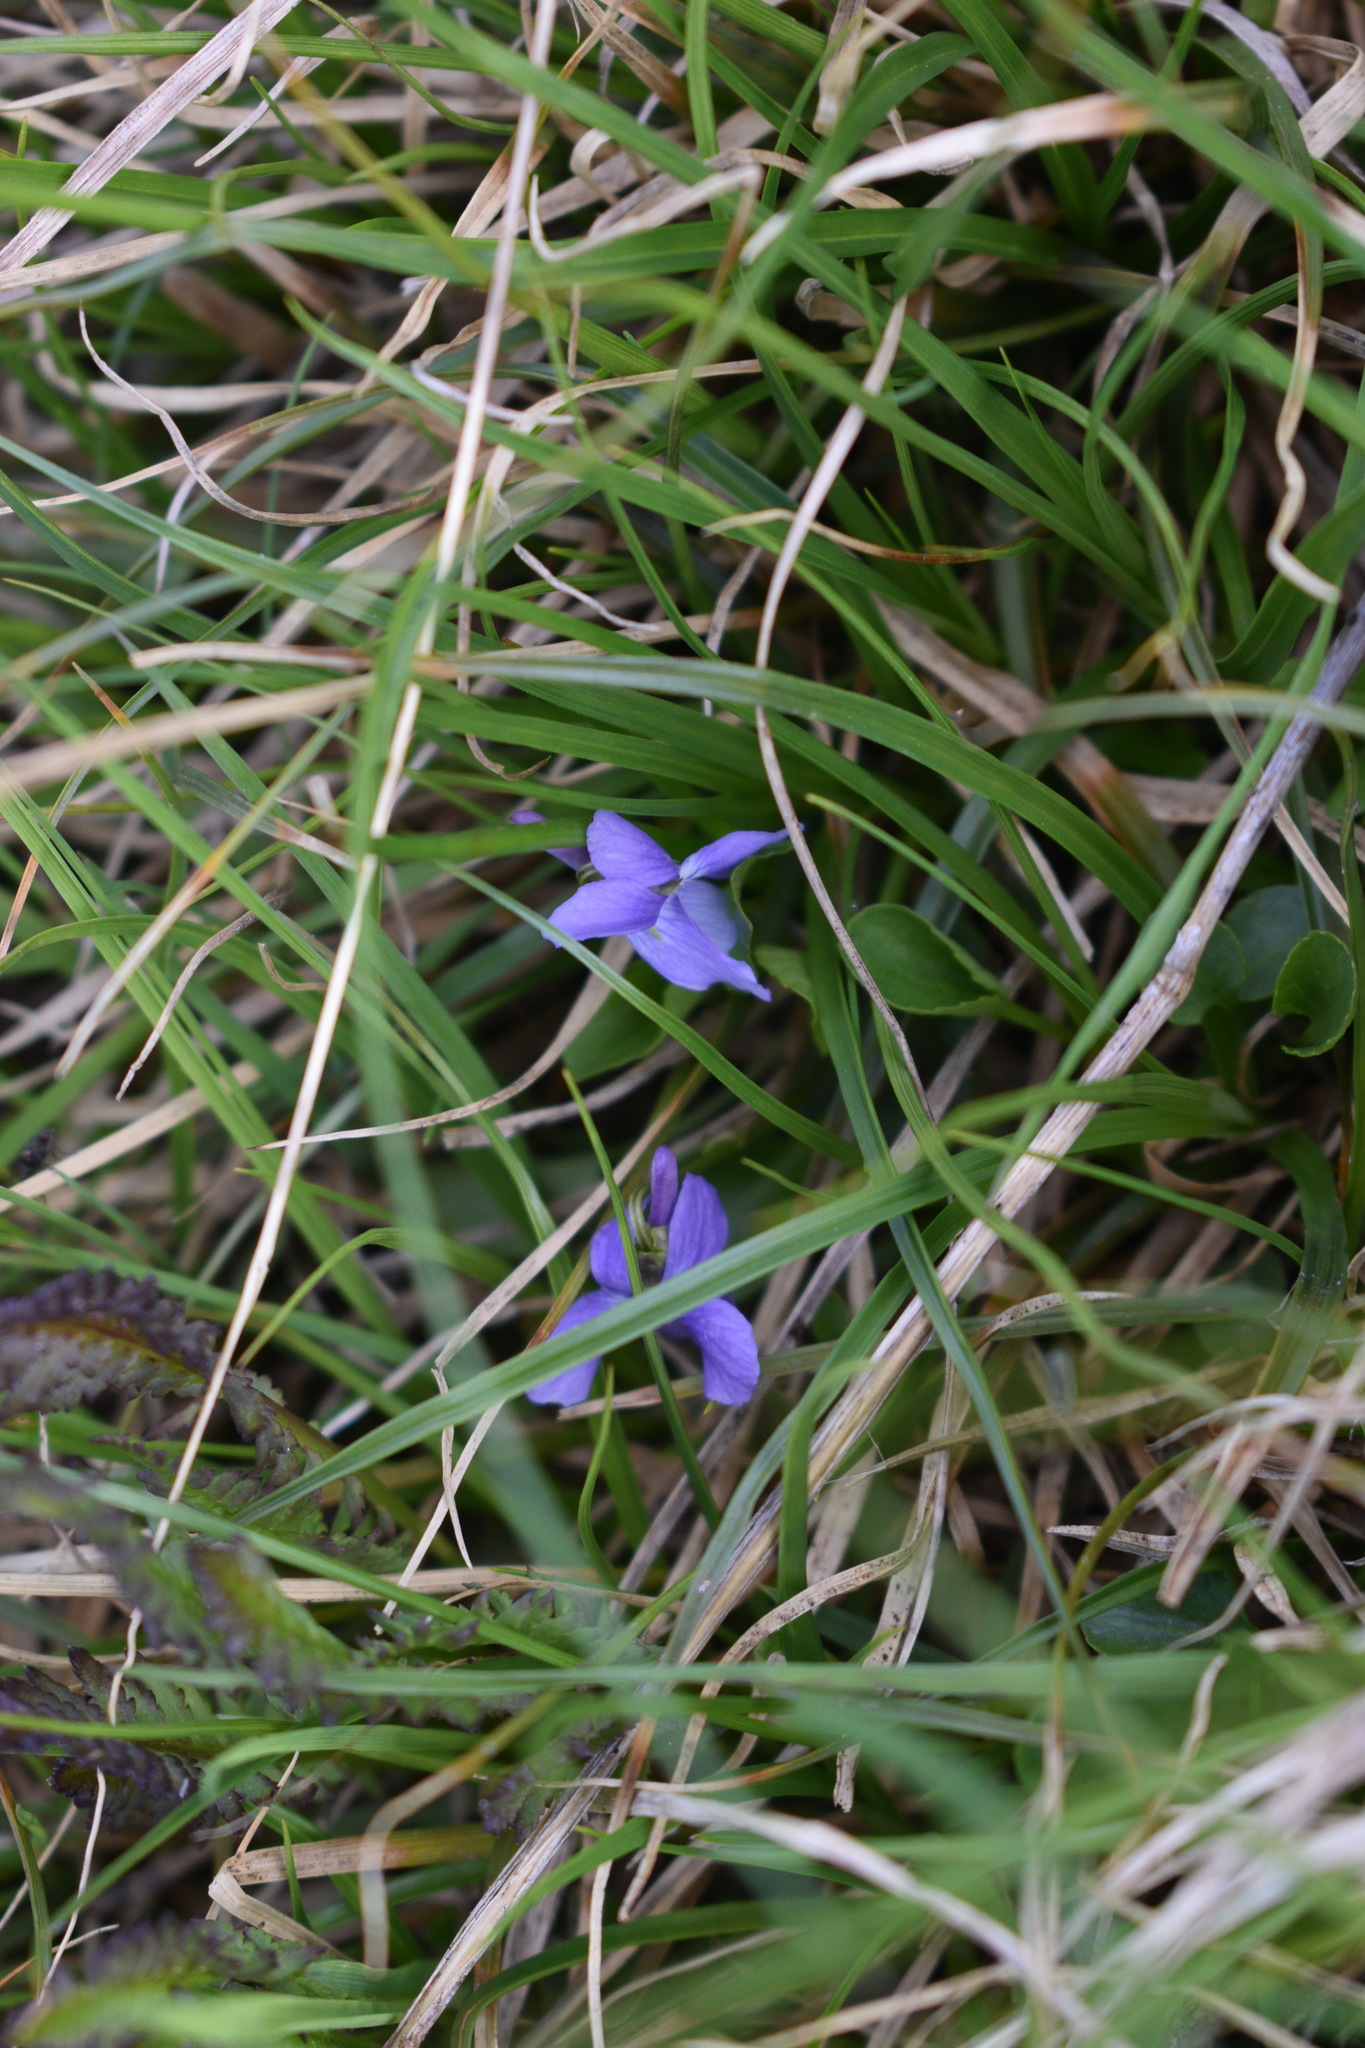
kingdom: Plantae
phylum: Tracheophyta
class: Magnoliopsida
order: Malpighiales
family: Violaceae
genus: Viola
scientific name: Viola adunca
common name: Sand violet
